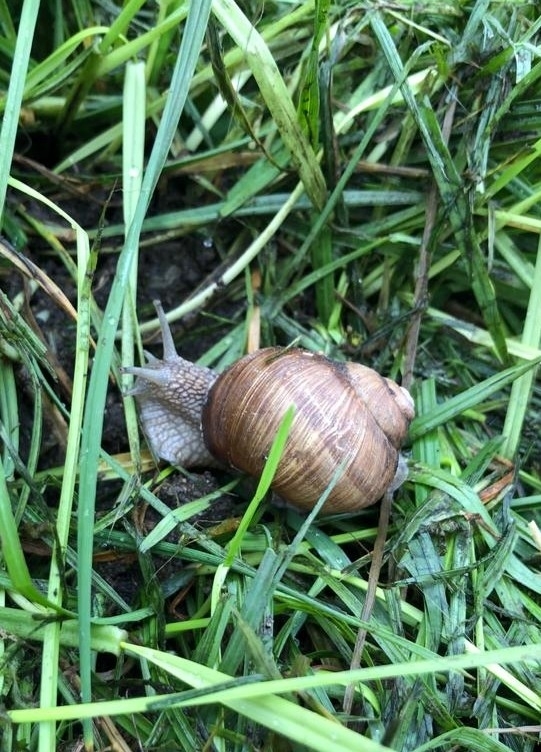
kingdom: Animalia
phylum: Mollusca
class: Gastropoda
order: Stylommatophora
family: Helicidae
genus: Helix
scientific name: Helix pomatia
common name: Roman snail
